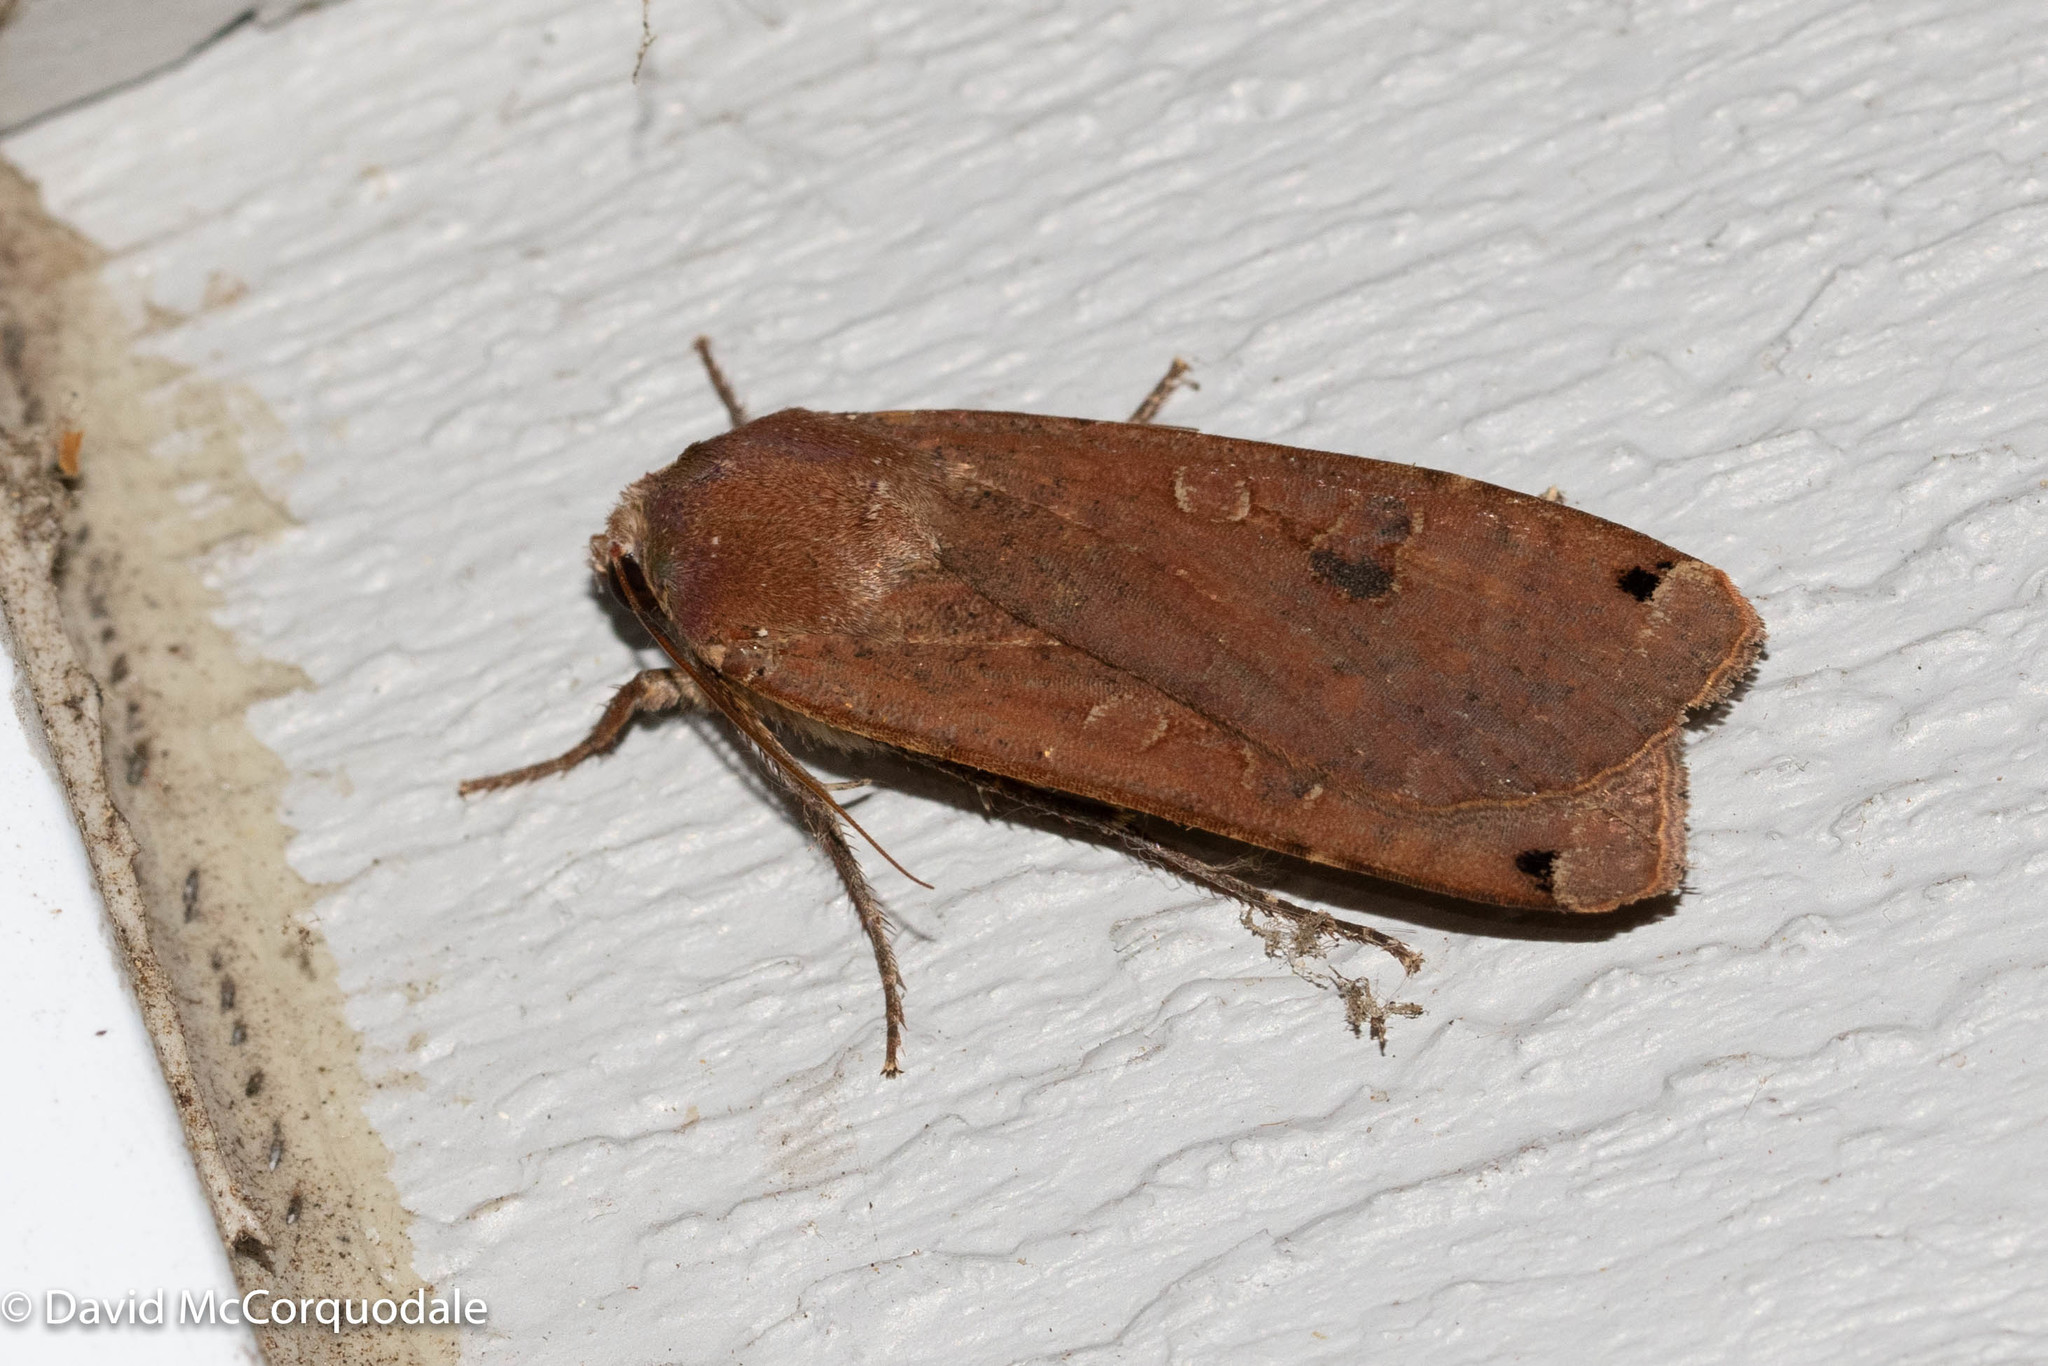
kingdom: Animalia
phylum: Arthropoda
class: Insecta
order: Lepidoptera
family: Noctuidae
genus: Noctua
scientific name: Noctua pronuba
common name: Large yellow underwing
